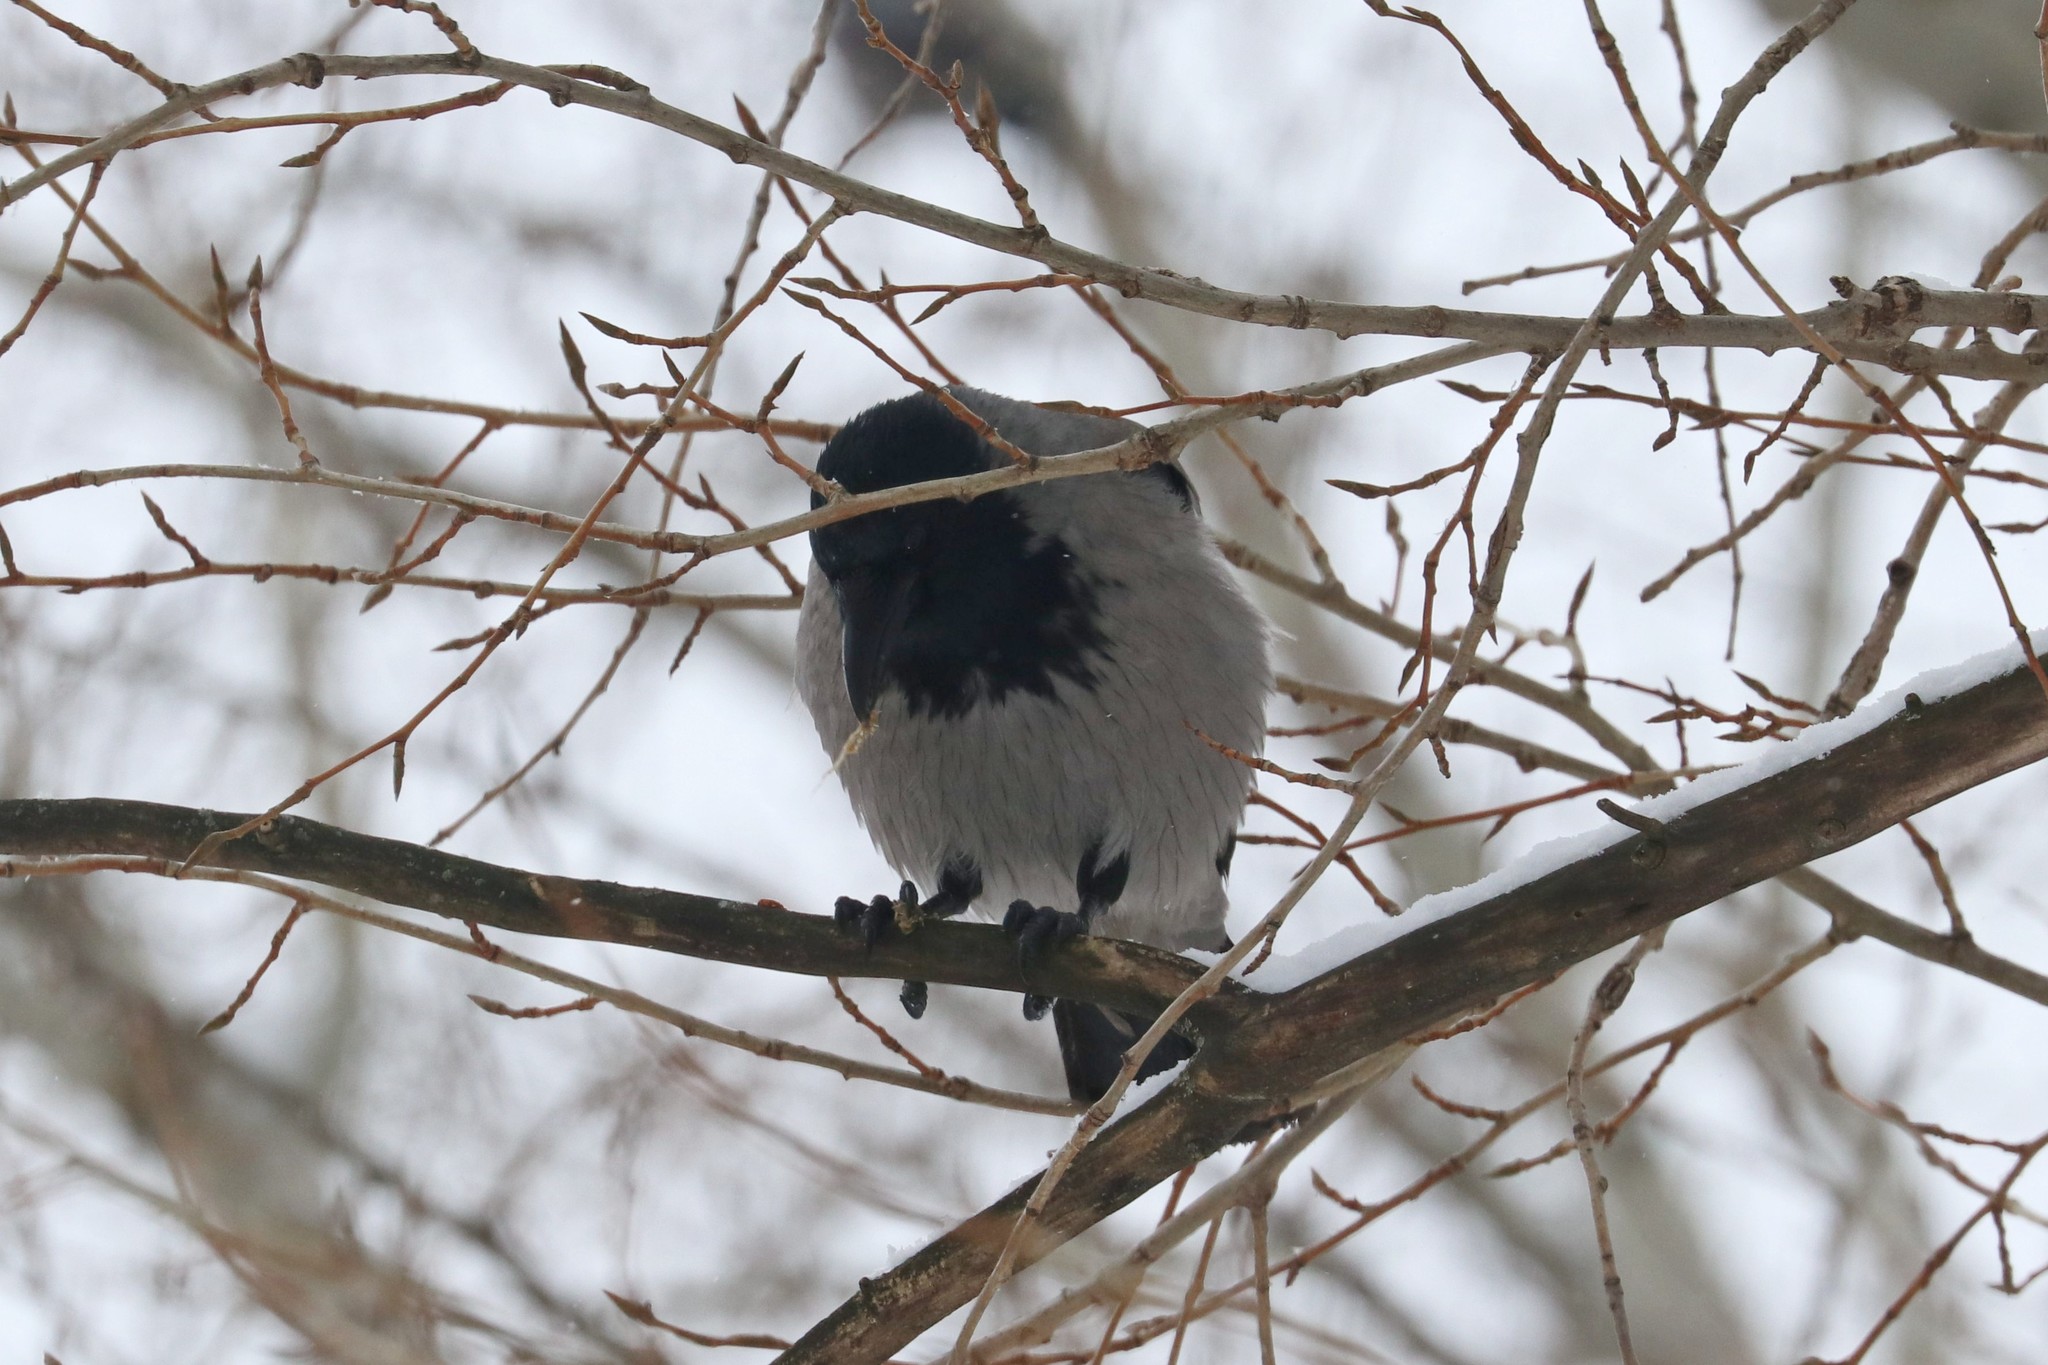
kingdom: Animalia
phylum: Chordata
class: Aves
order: Passeriformes
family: Corvidae
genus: Corvus
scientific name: Corvus cornix
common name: Hooded crow
